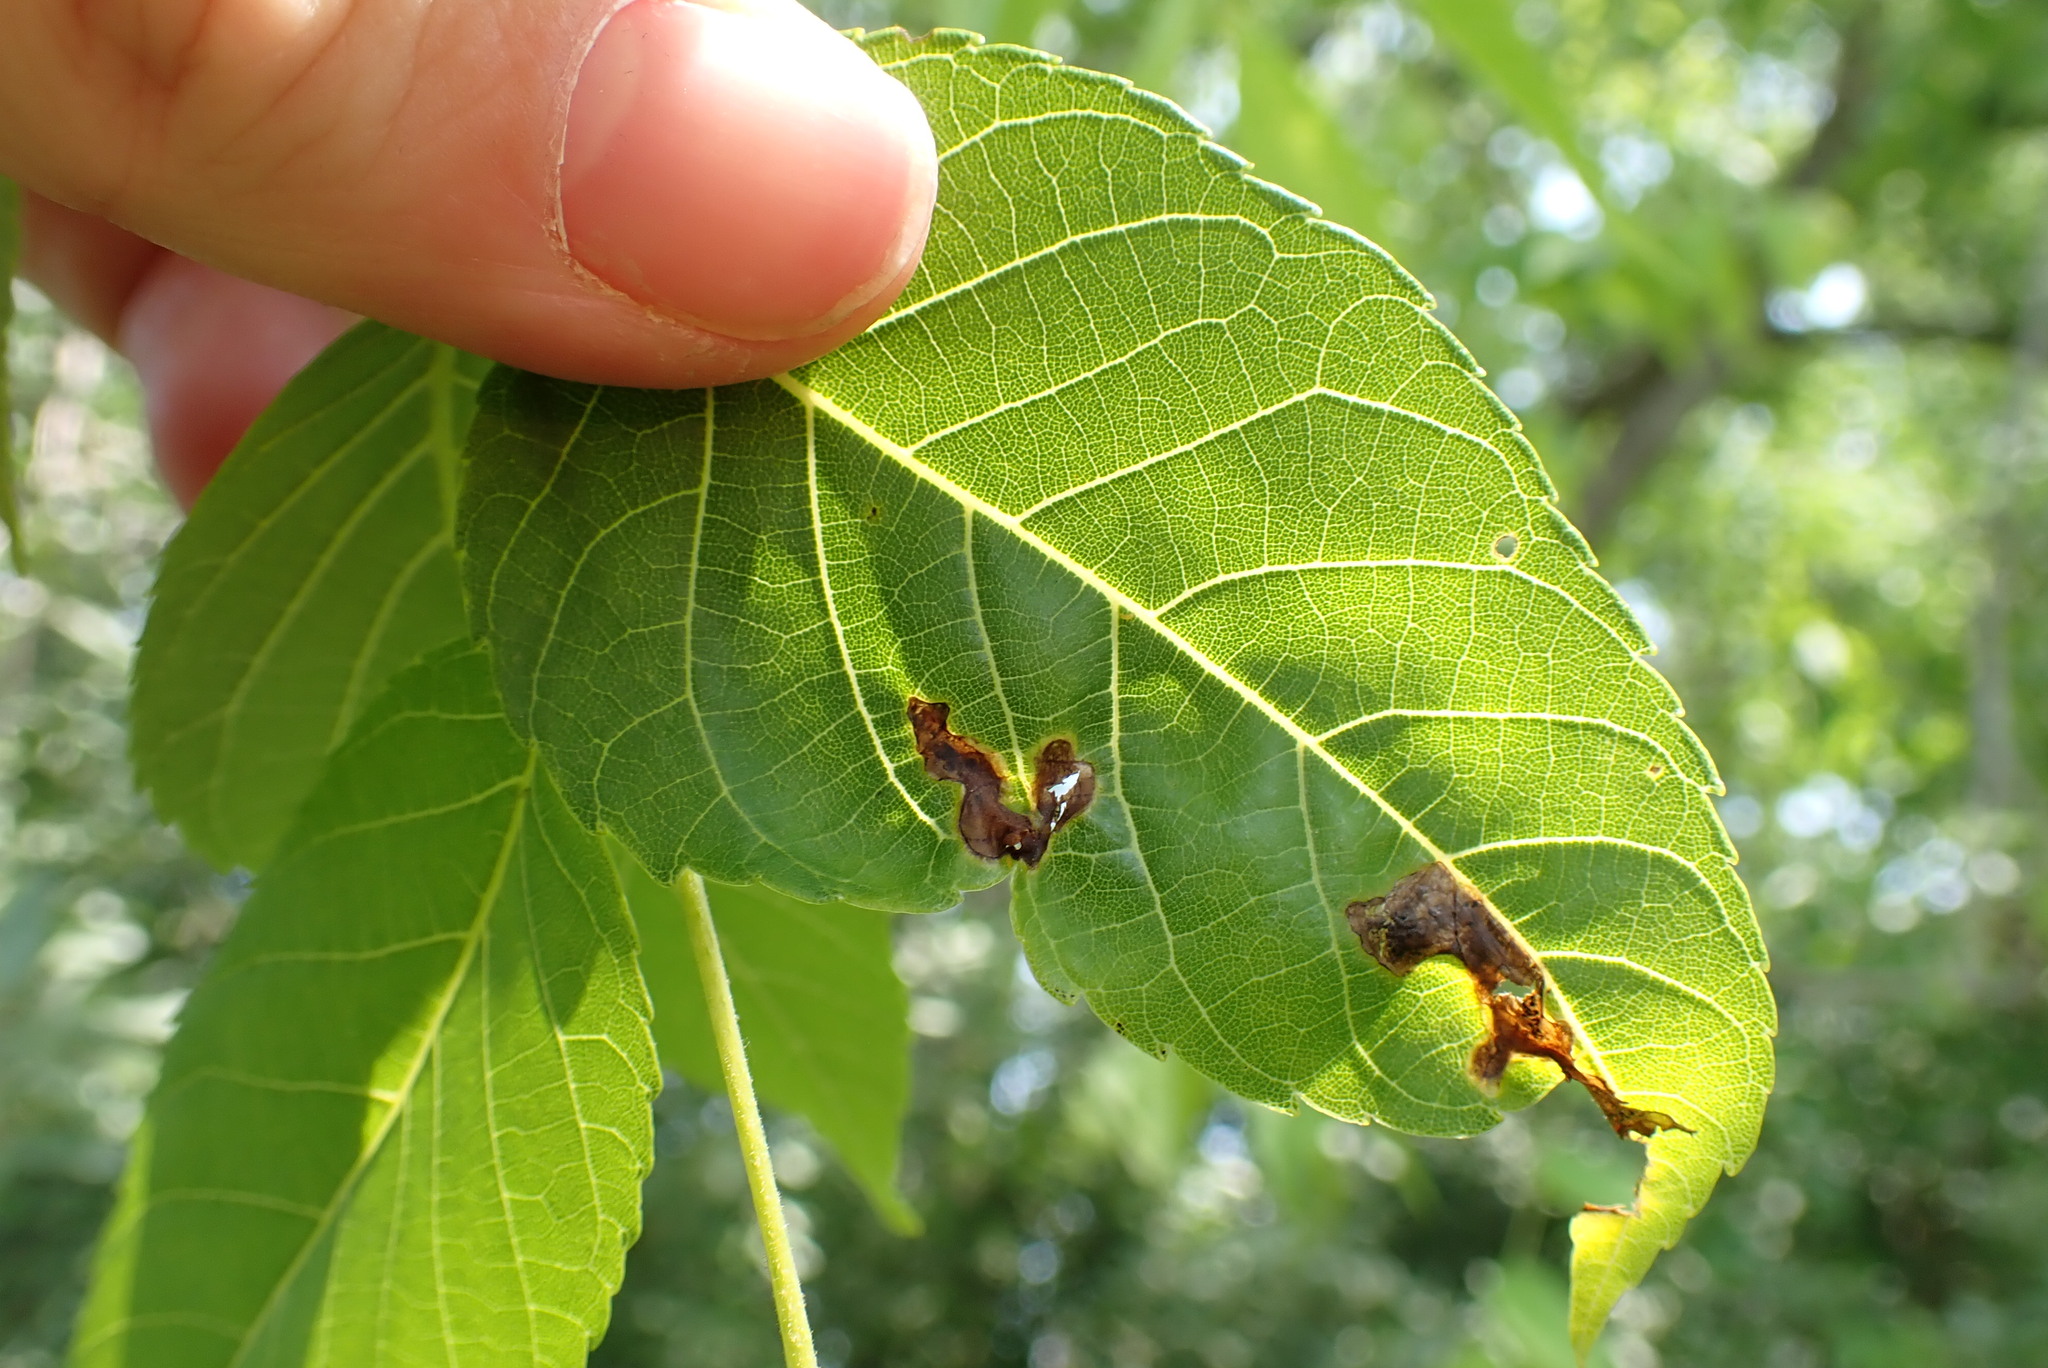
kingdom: Animalia
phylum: Arthropoda
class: Insecta
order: Diptera
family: Agromyzidae
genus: Japanagromyza
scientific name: Japanagromyza viridula
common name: Oak shothole leafminer
